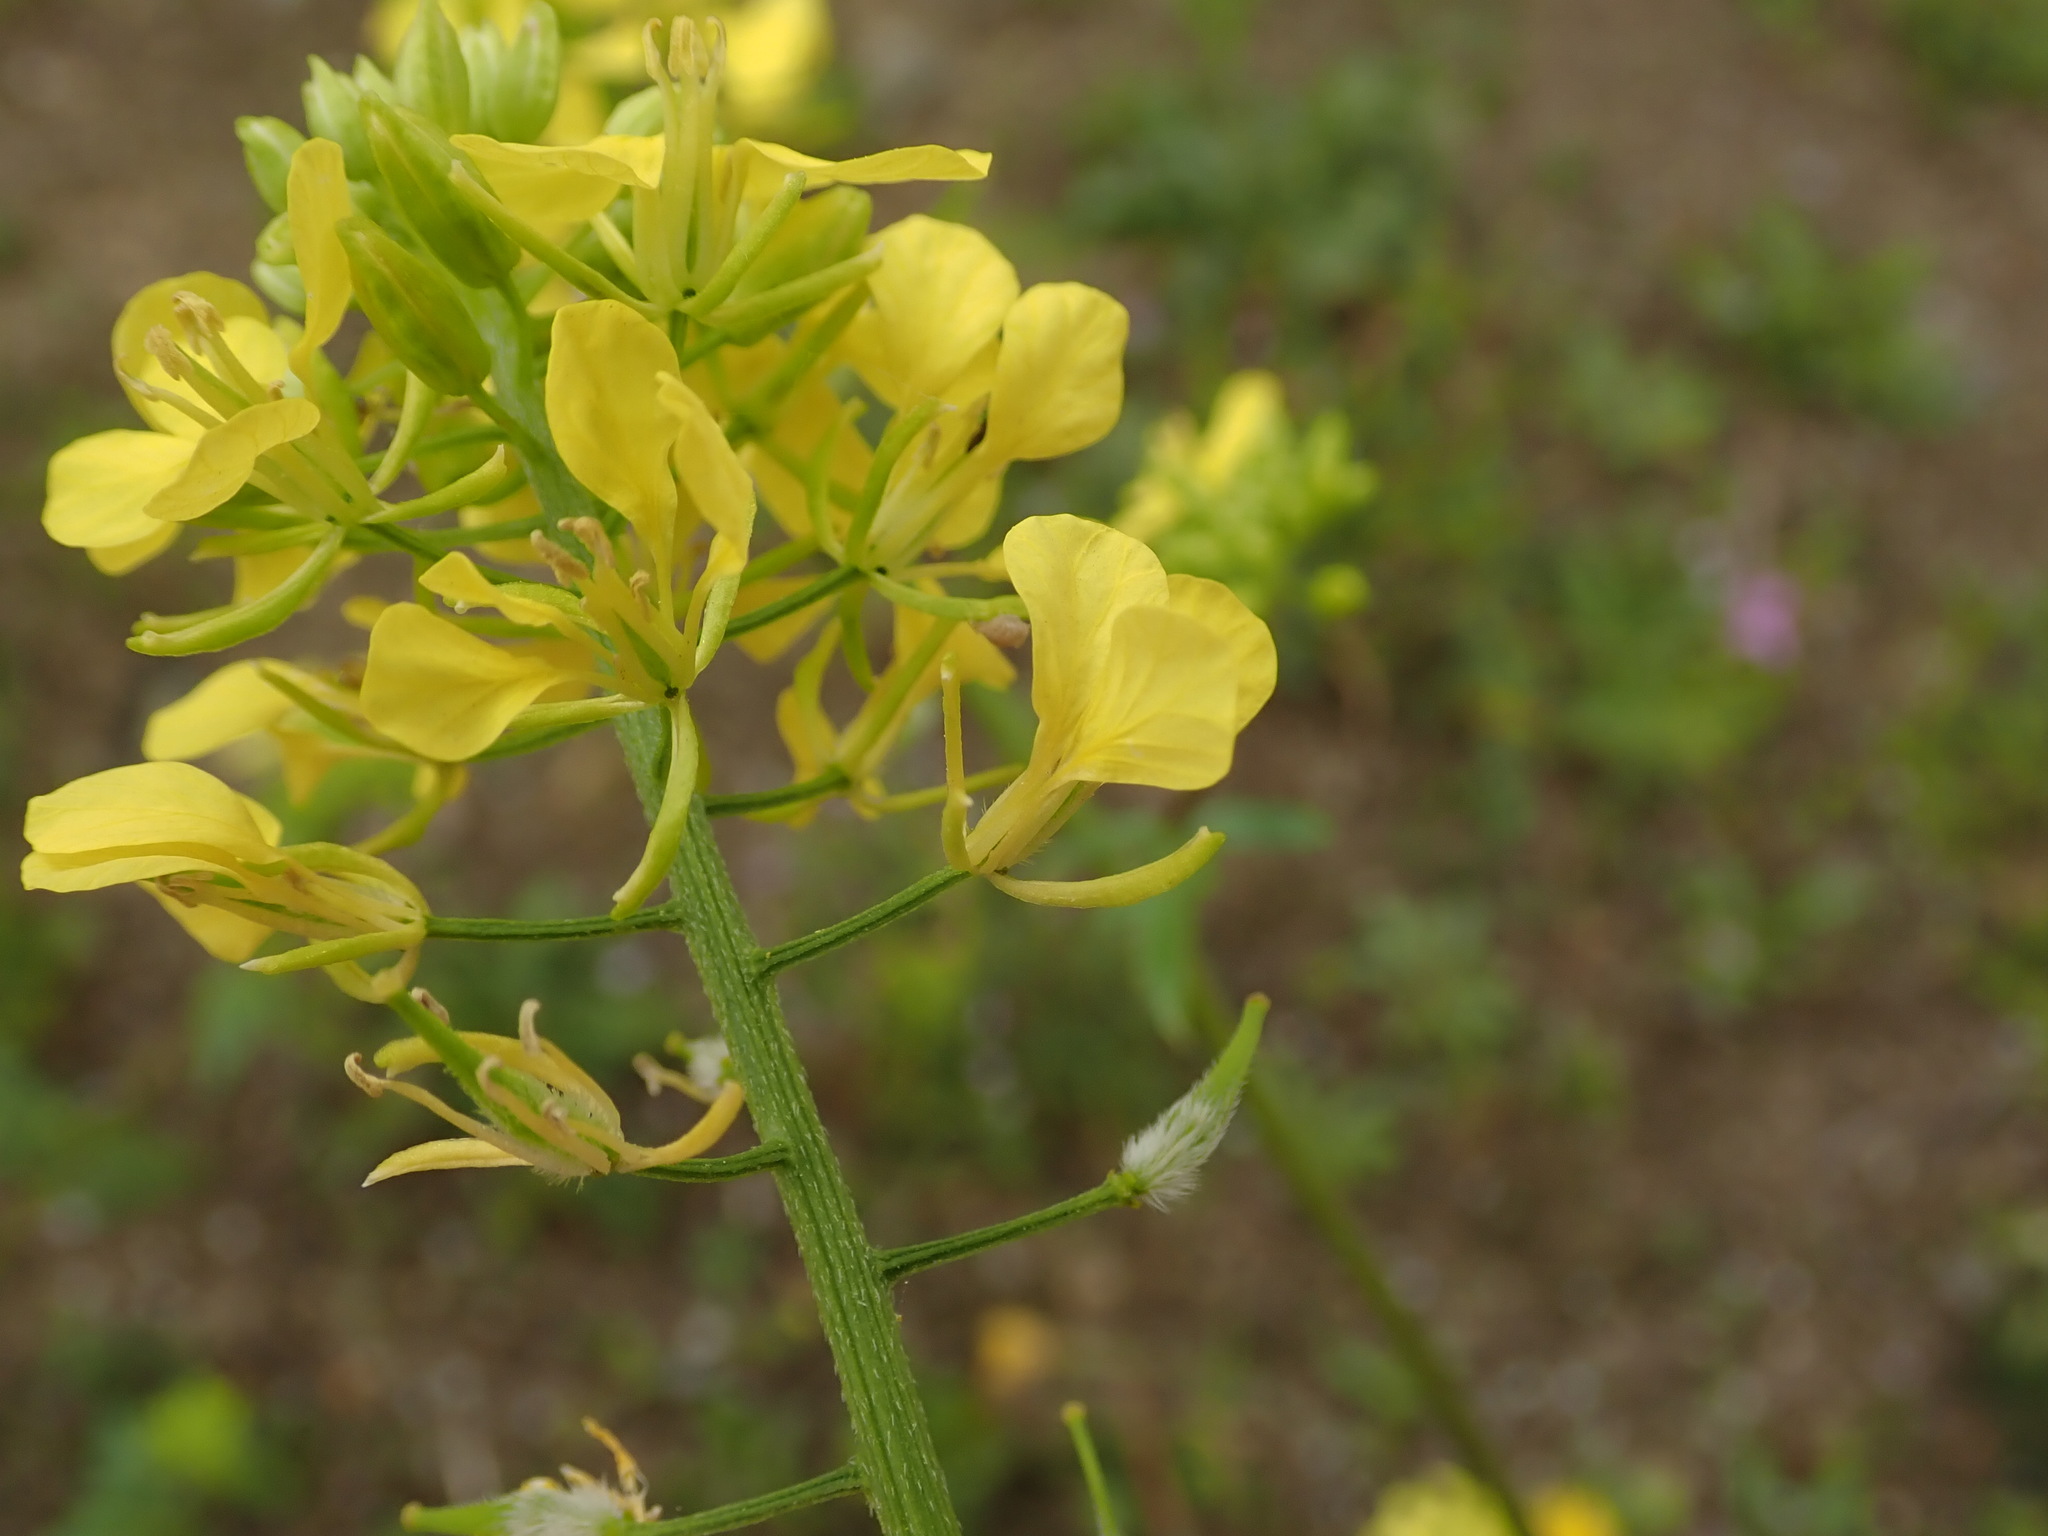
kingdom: Plantae
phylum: Tracheophyta
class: Magnoliopsida
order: Brassicales
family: Brassicaceae
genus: Sinapis
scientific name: Sinapis alba
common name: White mustard
